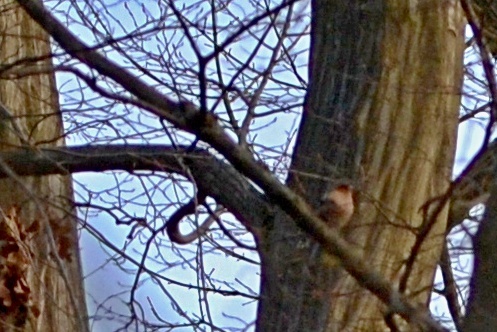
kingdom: Animalia
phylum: Chordata
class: Aves
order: Passeriformes
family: Fringillidae
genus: Fringilla
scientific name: Fringilla coelebs
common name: Common chaffinch
